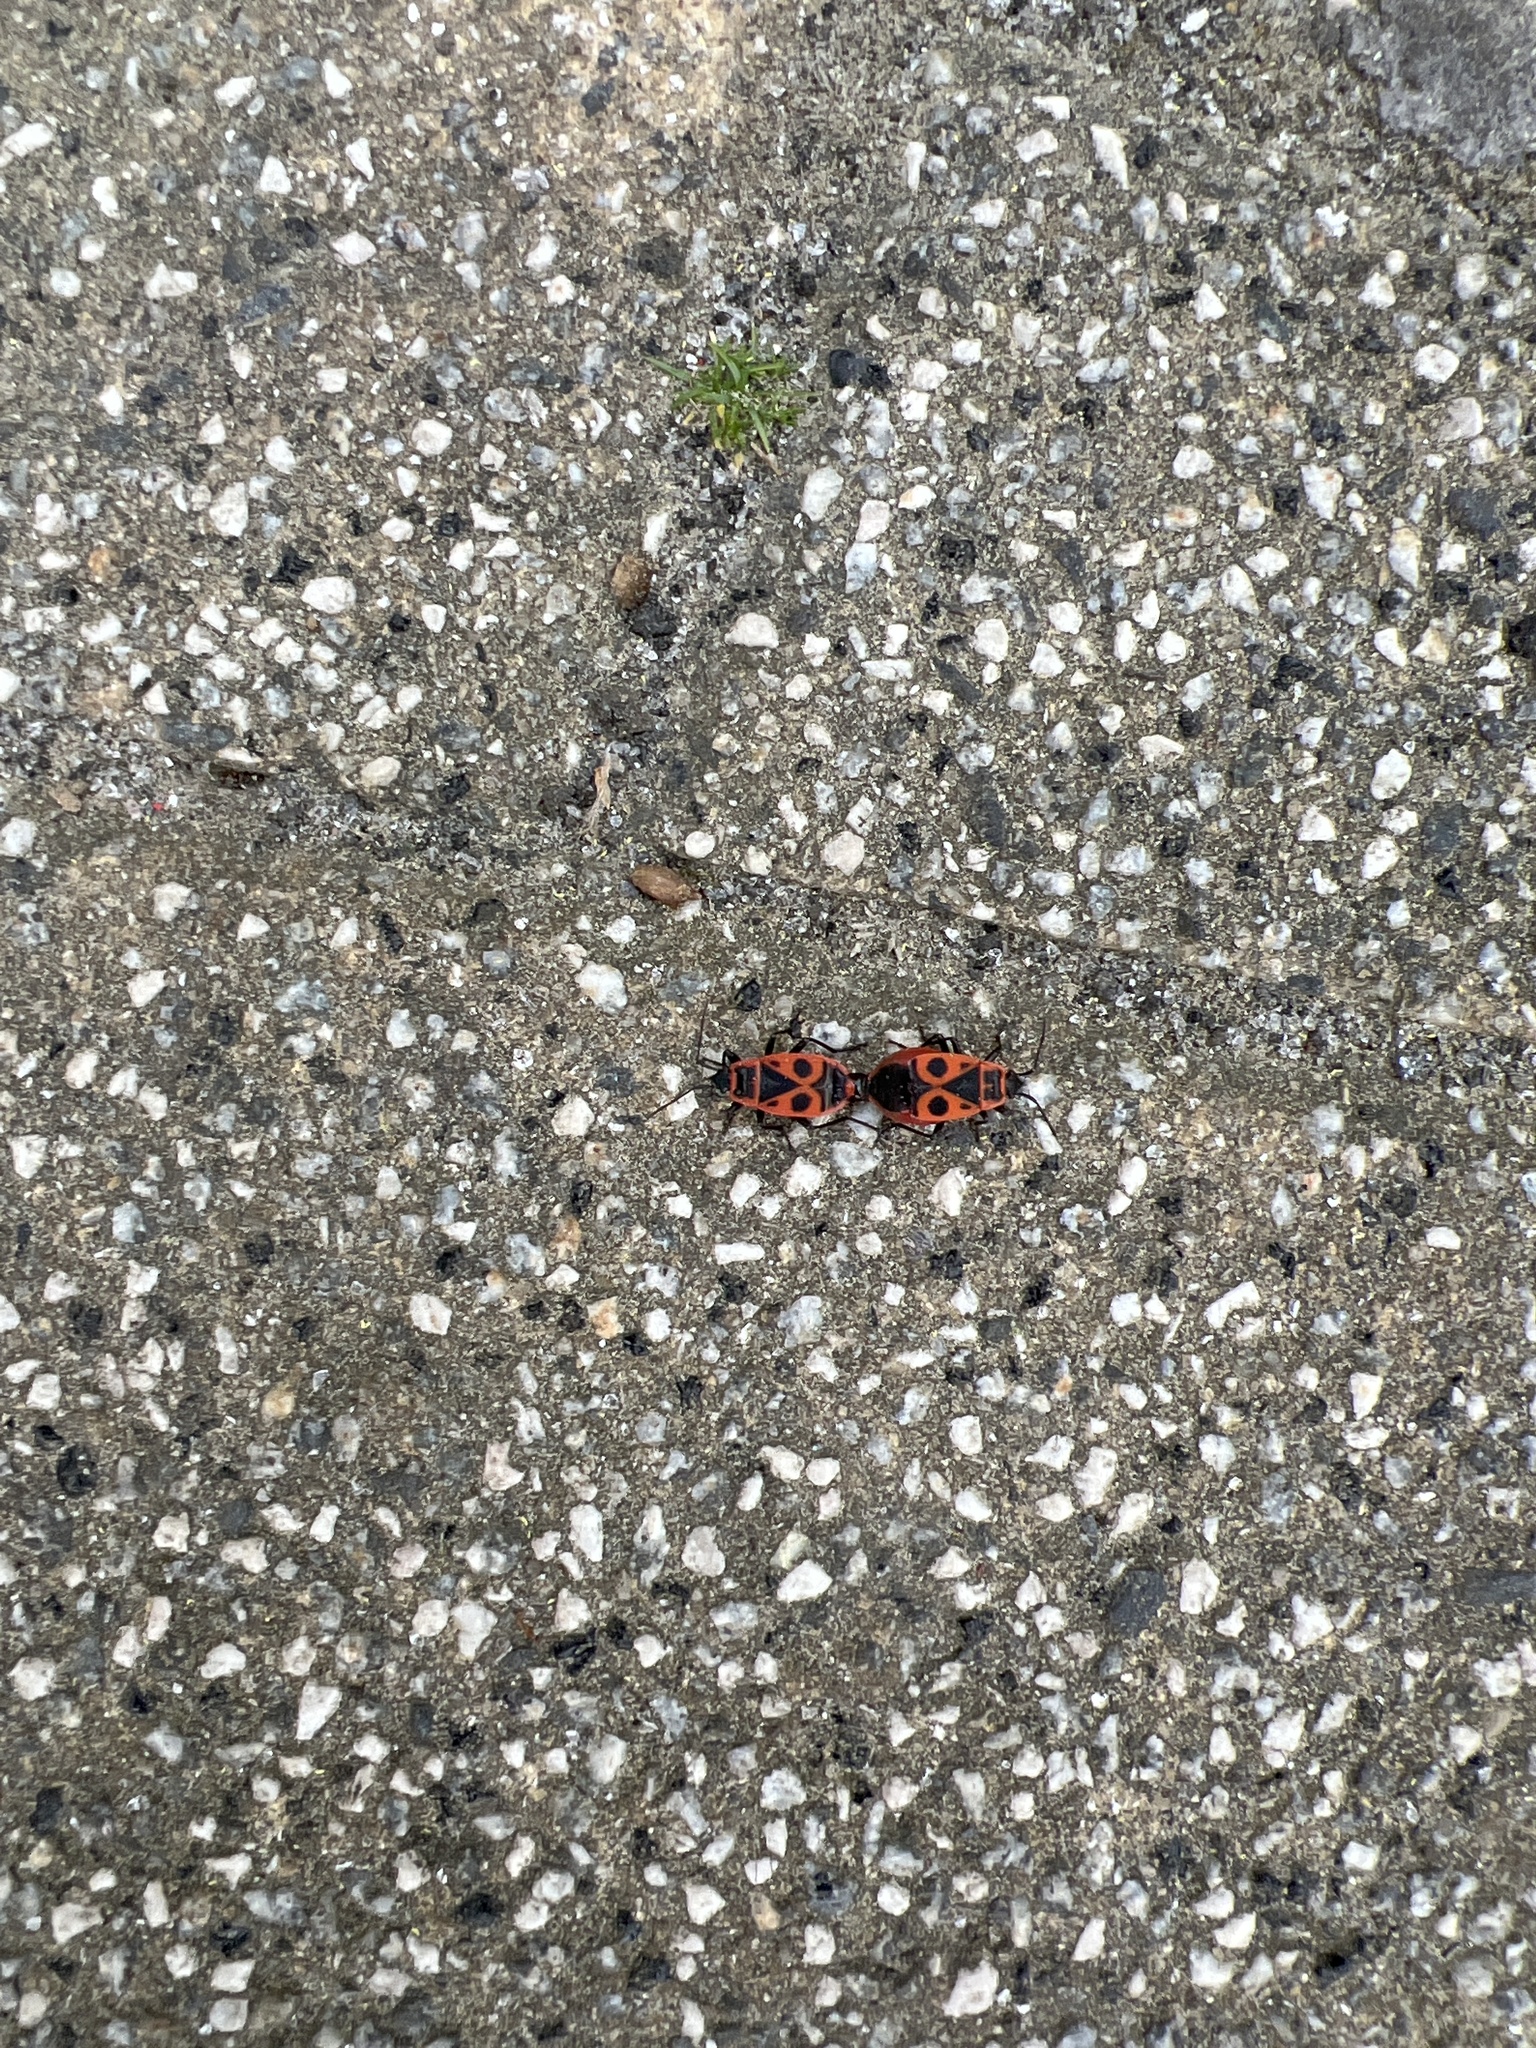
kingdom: Animalia
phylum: Arthropoda
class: Insecta
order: Hemiptera
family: Pyrrhocoridae
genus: Pyrrhocoris
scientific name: Pyrrhocoris apterus
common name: Firebug
